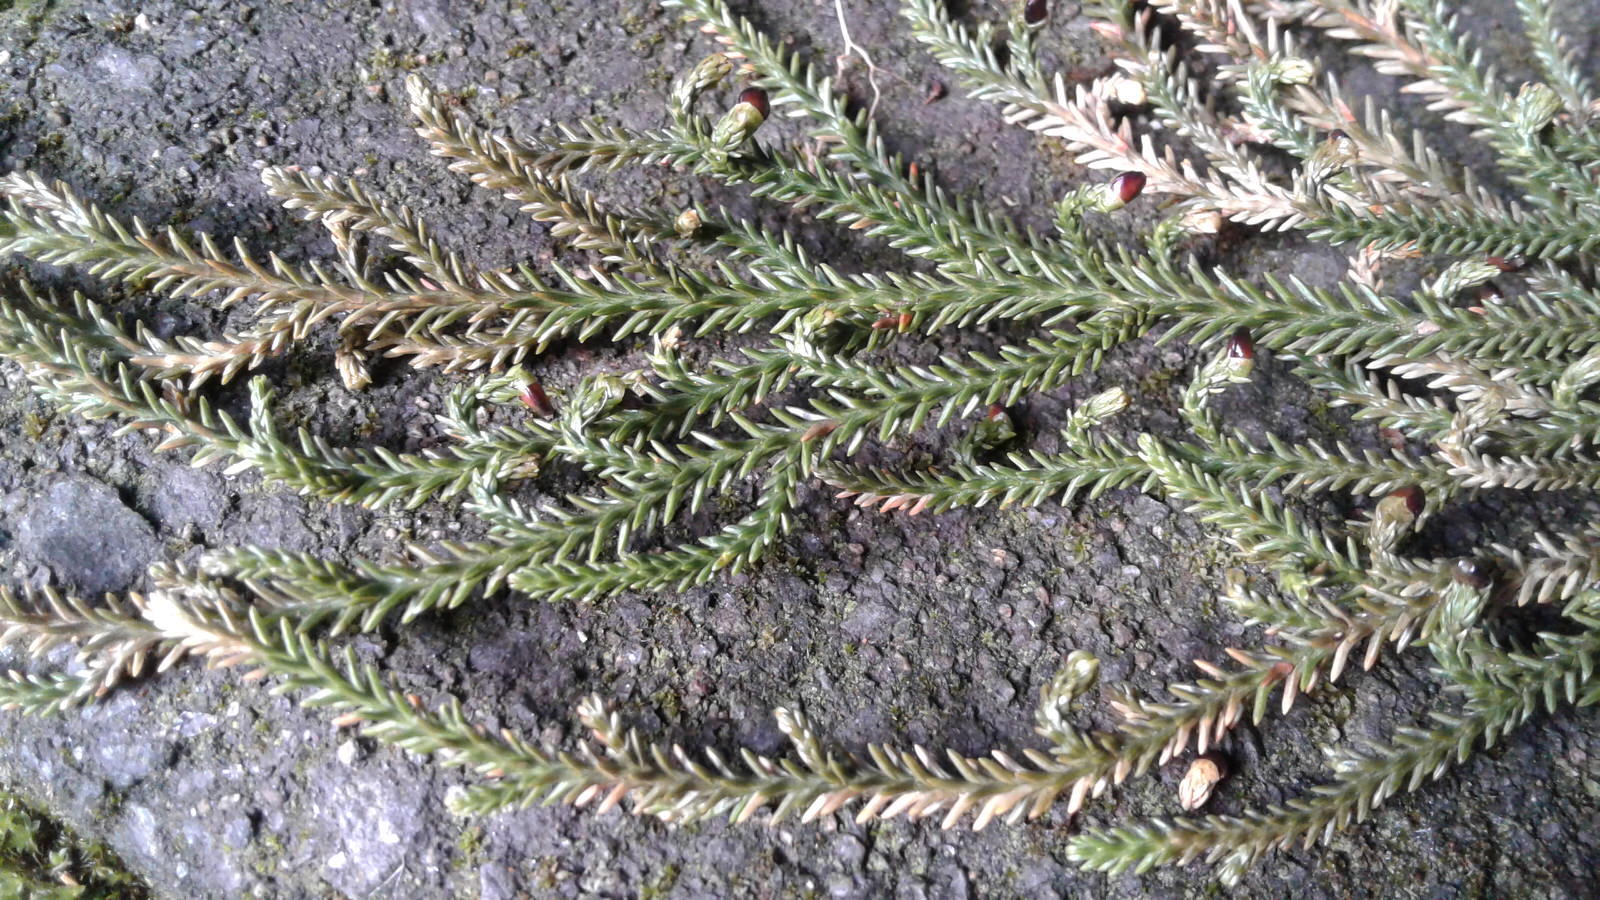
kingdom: Plantae
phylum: Tracheophyta
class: Pinopsida
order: Pinales
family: Podocarpaceae
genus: Dacrydium
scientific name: Dacrydium cupressinum
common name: Red pine
